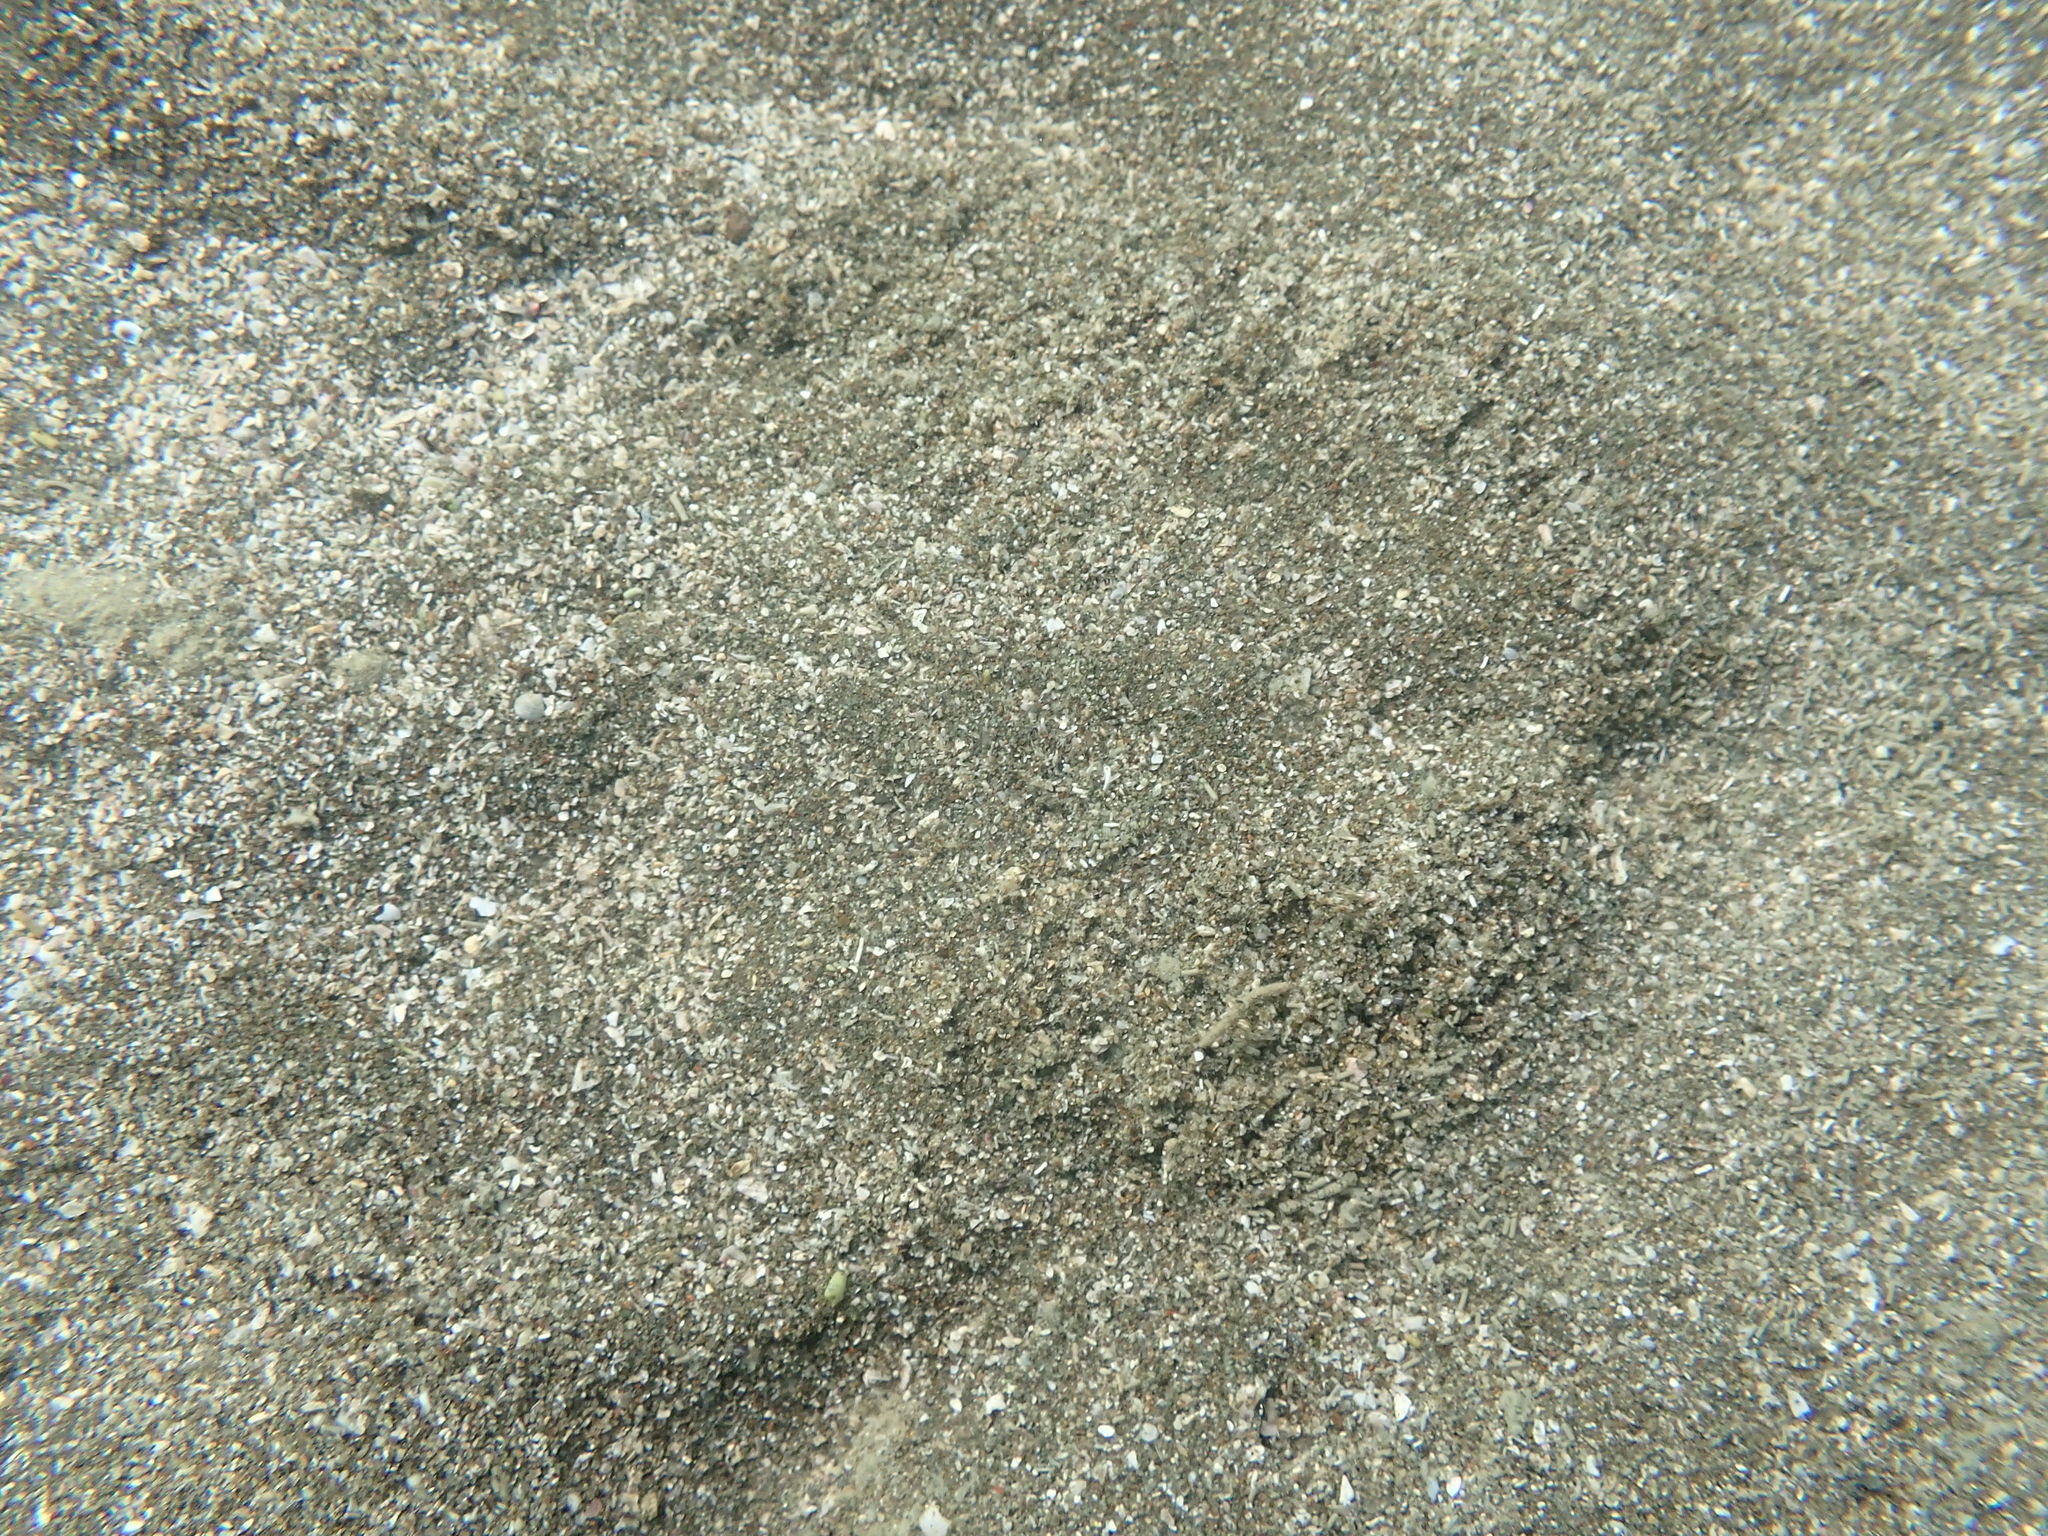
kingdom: Animalia
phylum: Echinodermata
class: Echinoidea
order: Clypeasteroida
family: Clypeasteridae
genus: Fellaster
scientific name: Fellaster zelandiae
